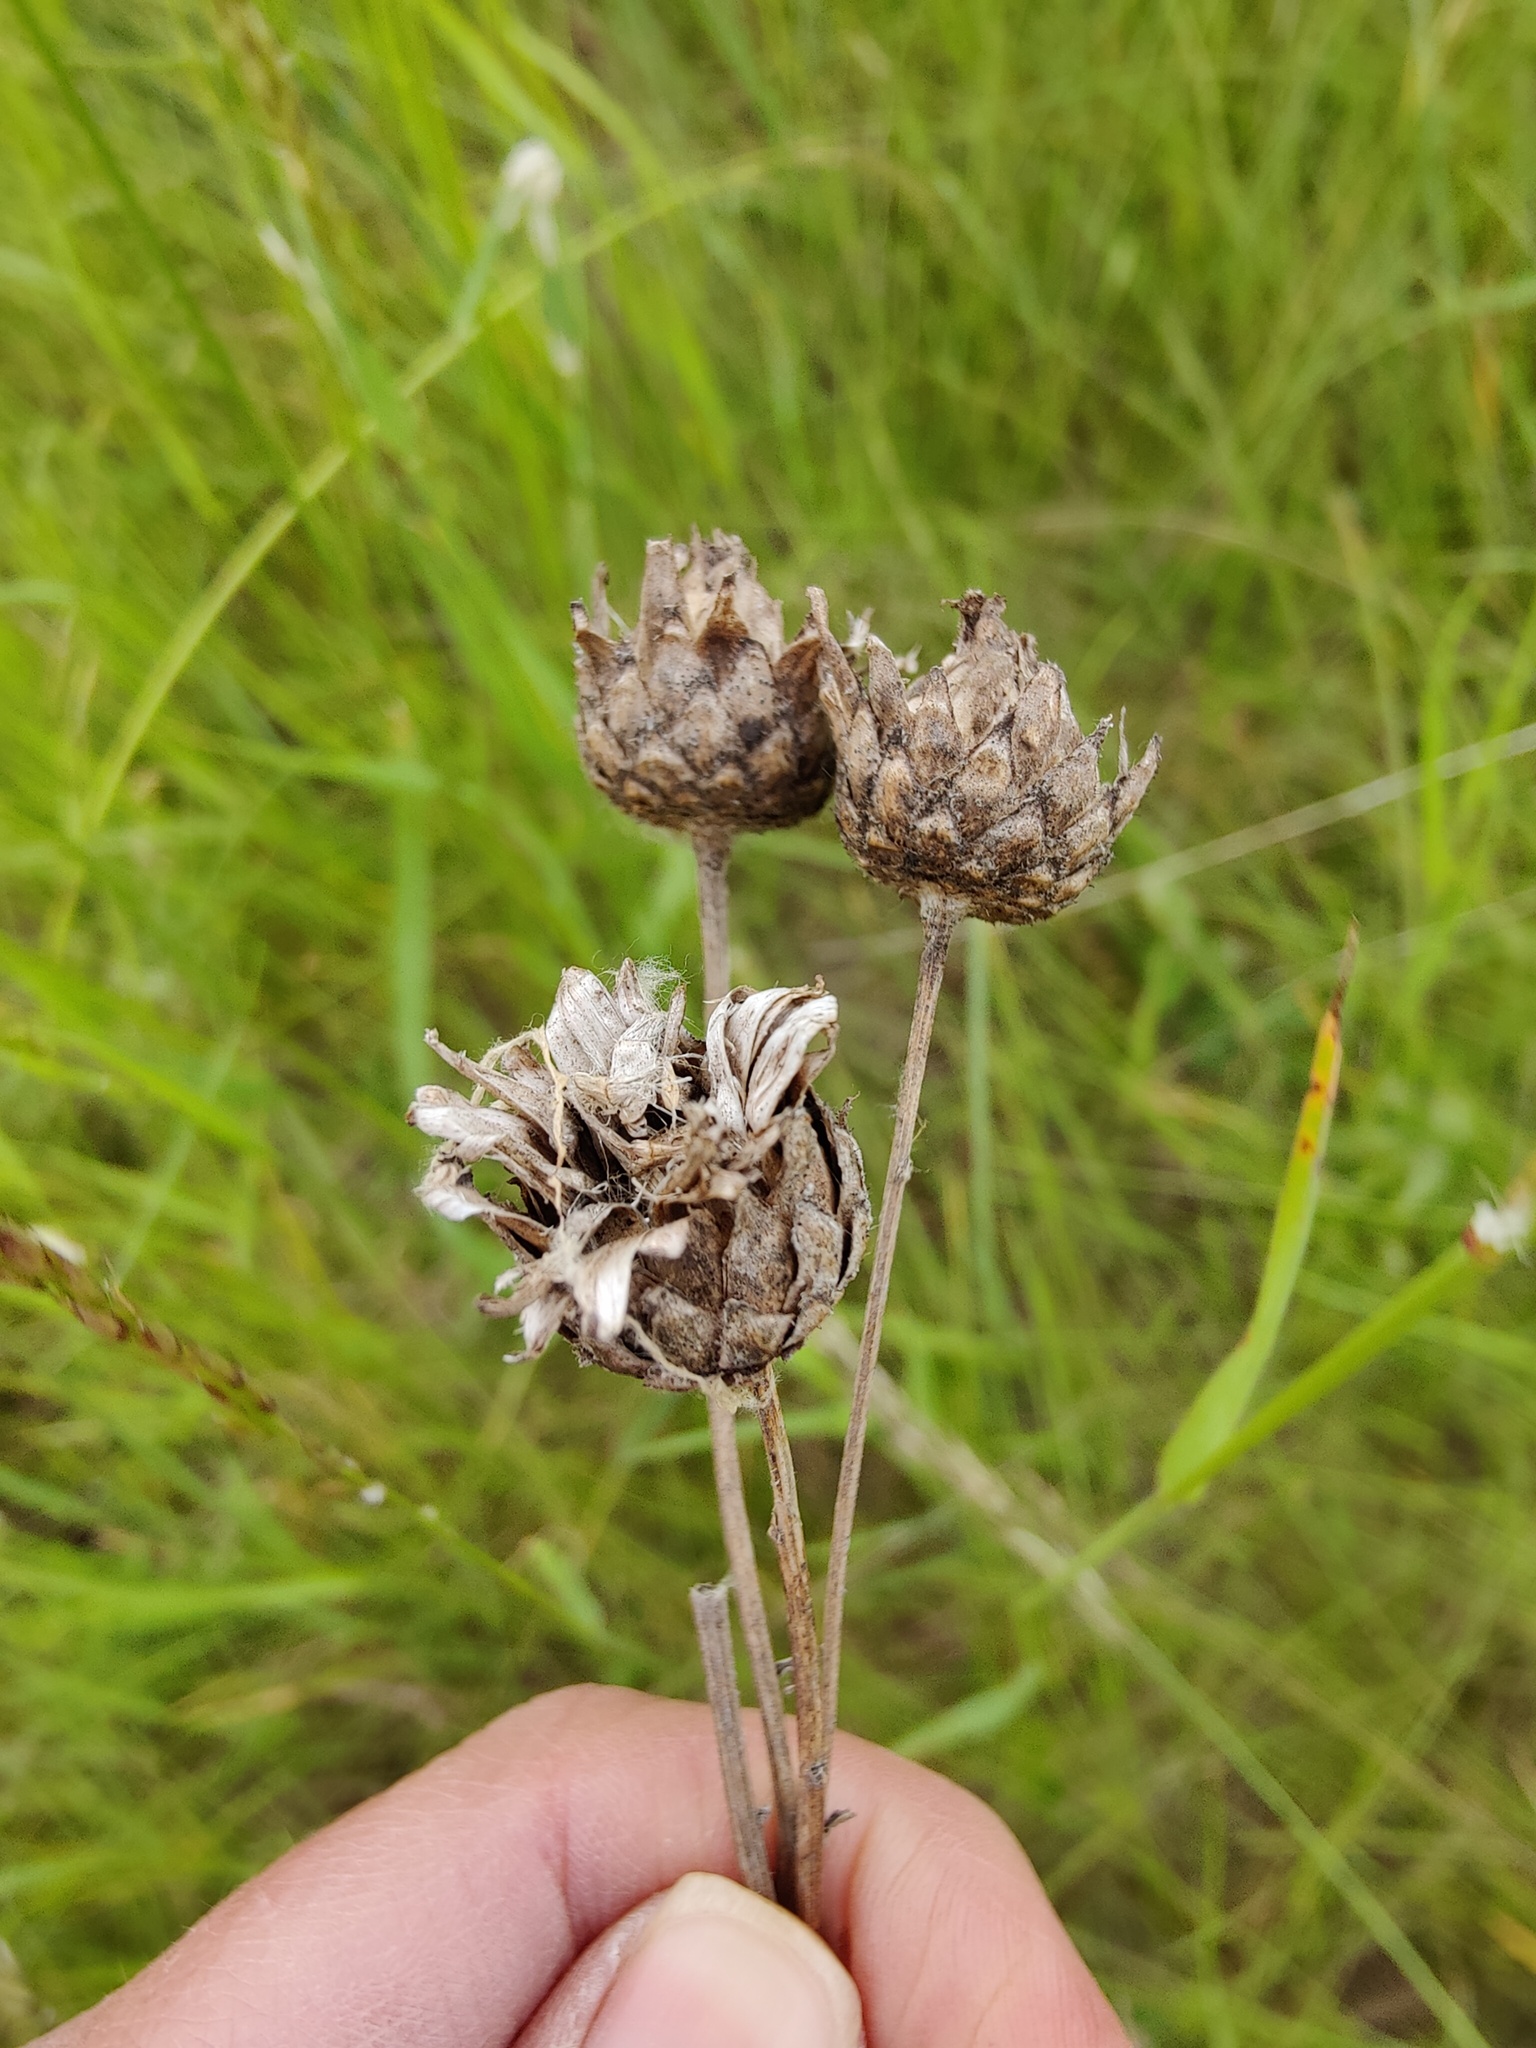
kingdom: Plantae
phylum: Tracheophyta
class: Magnoliopsida
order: Asterales
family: Asteraceae
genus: Centaurea
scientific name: Centaurea scabiosa
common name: Greater knapweed
